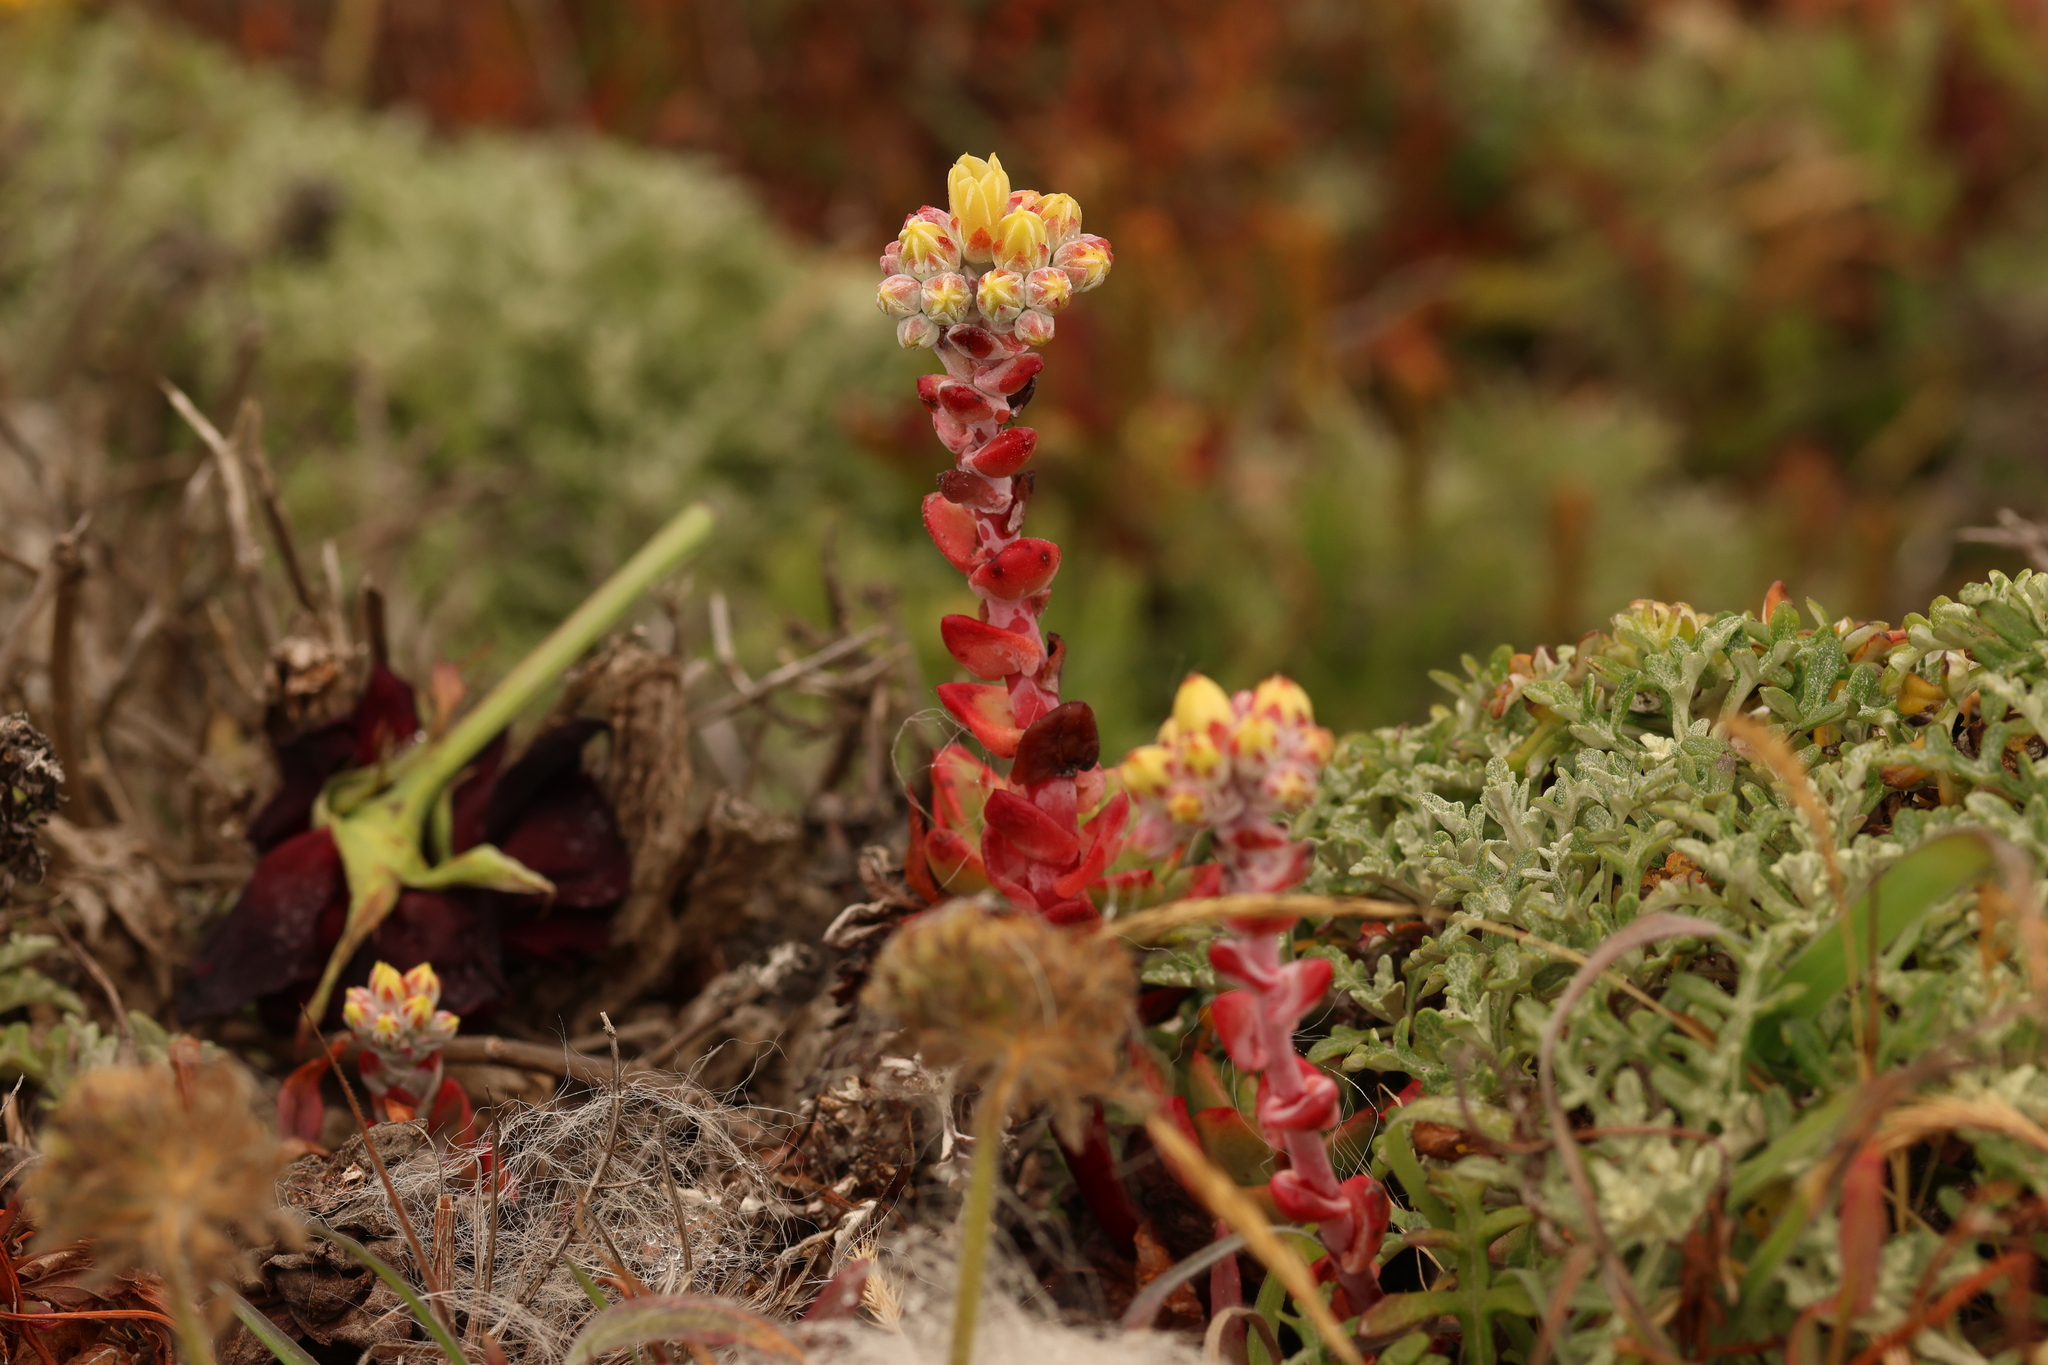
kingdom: Plantae
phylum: Tracheophyta
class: Magnoliopsida
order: Saxifragales
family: Crassulaceae
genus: Dudleya
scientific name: Dudleya farinosa
